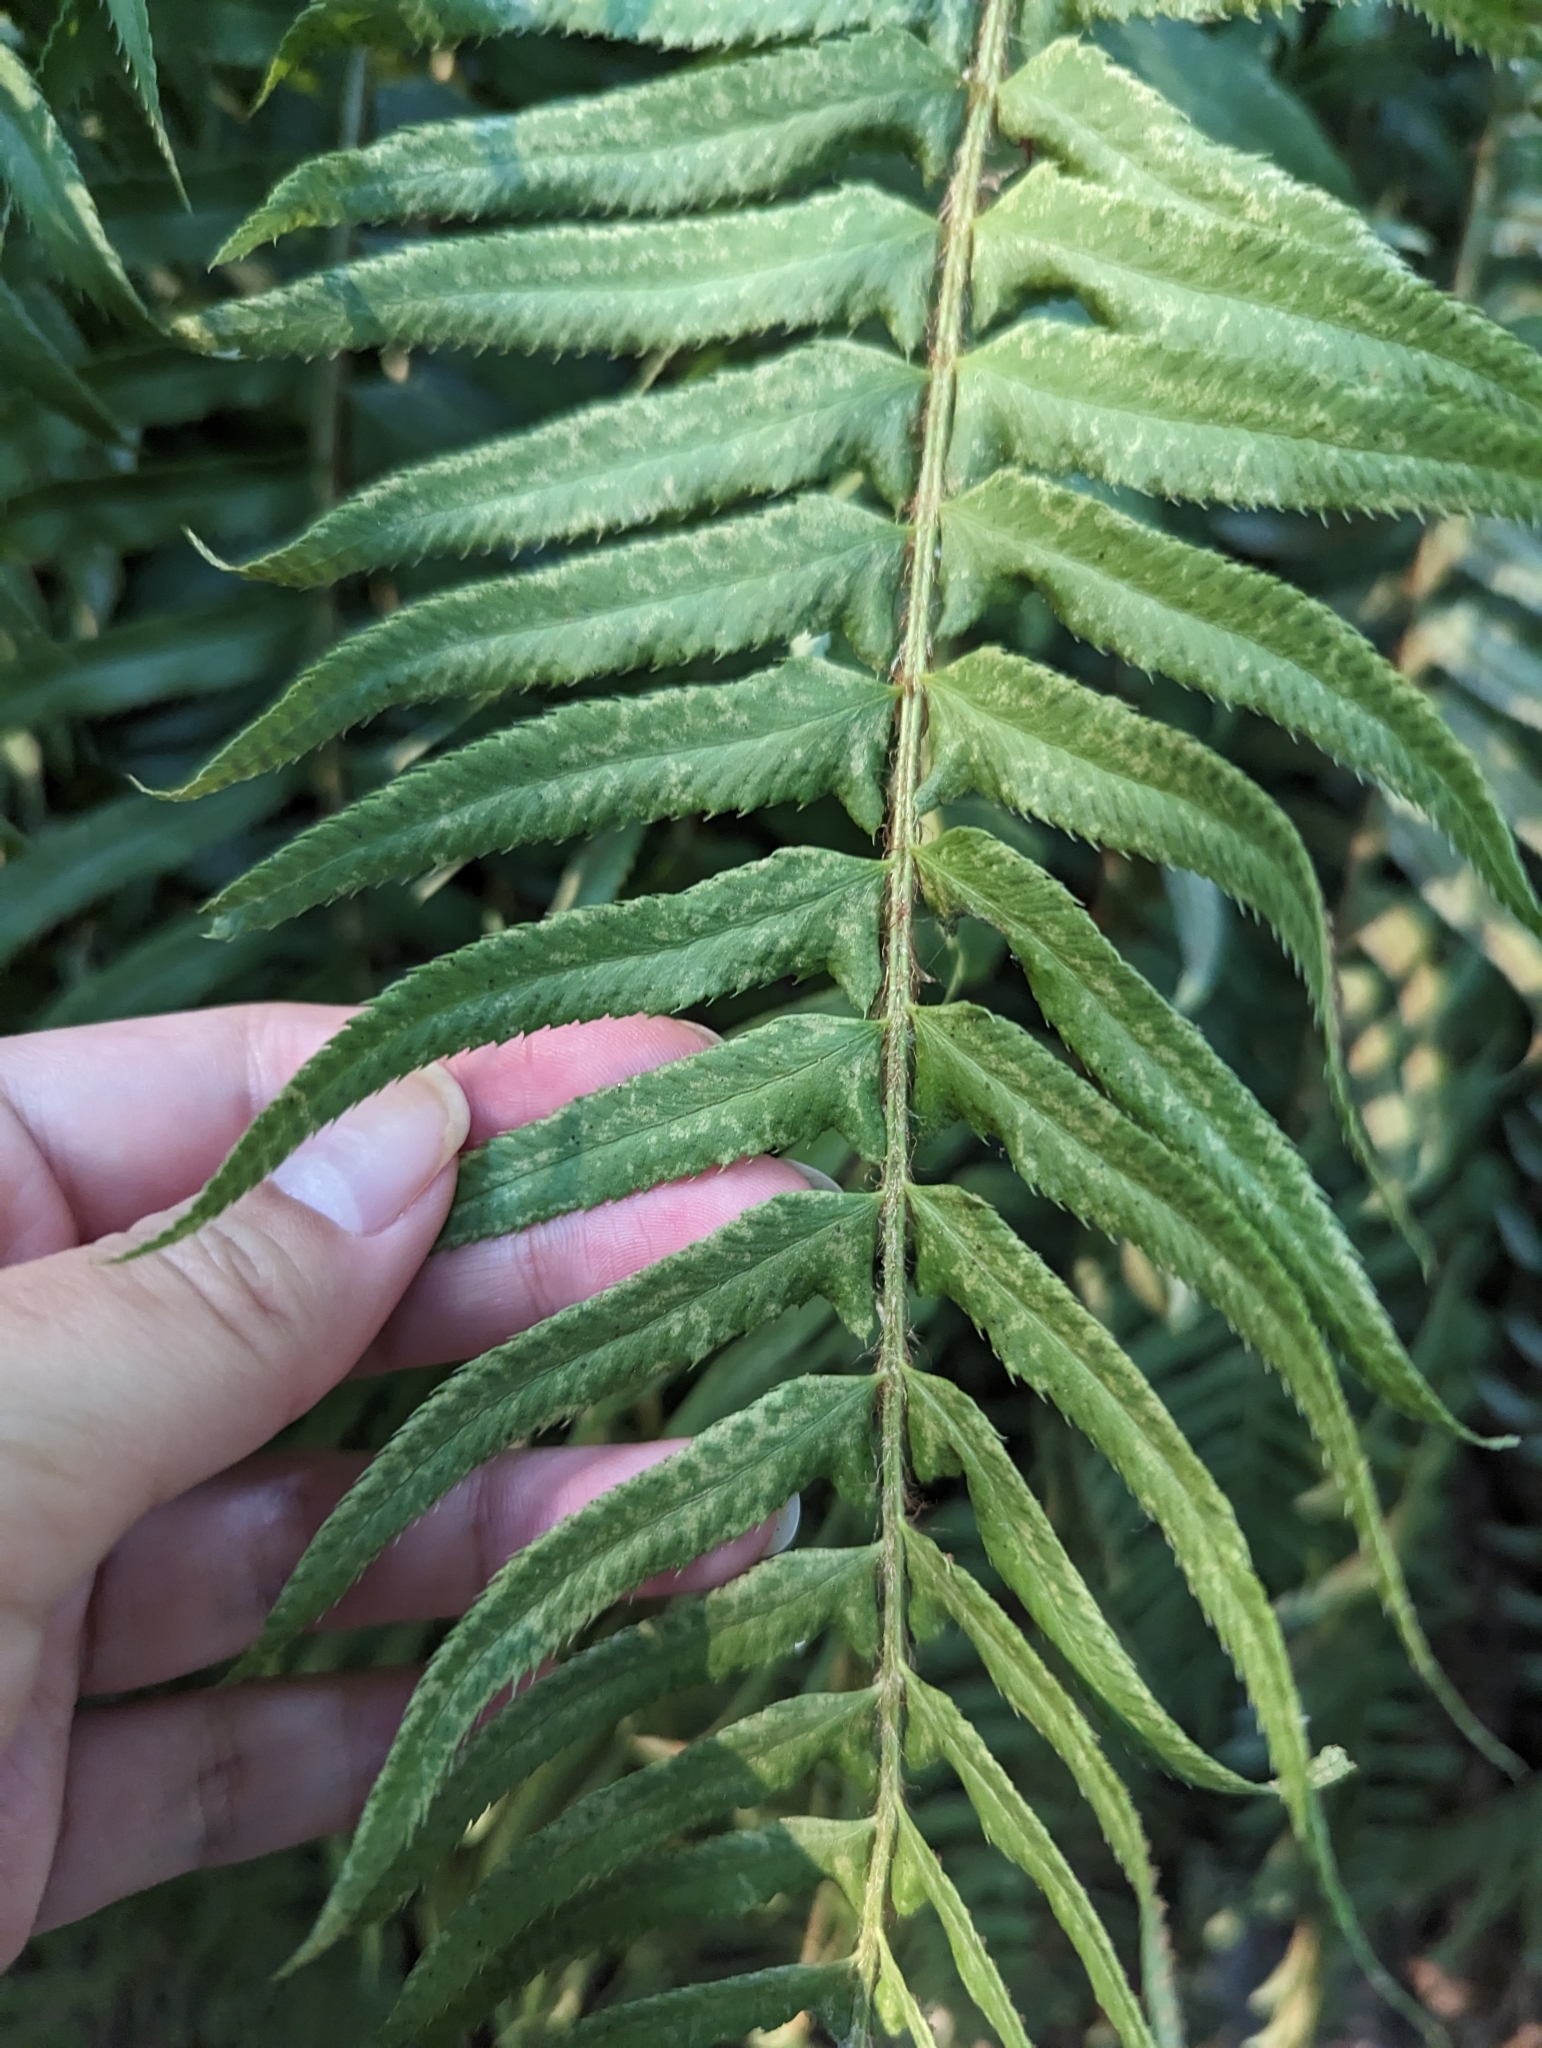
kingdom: Plantae
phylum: Tracheophyta
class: Polypodiopsida
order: Polypodiales
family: Dryopteridaceae
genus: Polystichum
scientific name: Polystichum munitum
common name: Western sword-fern
